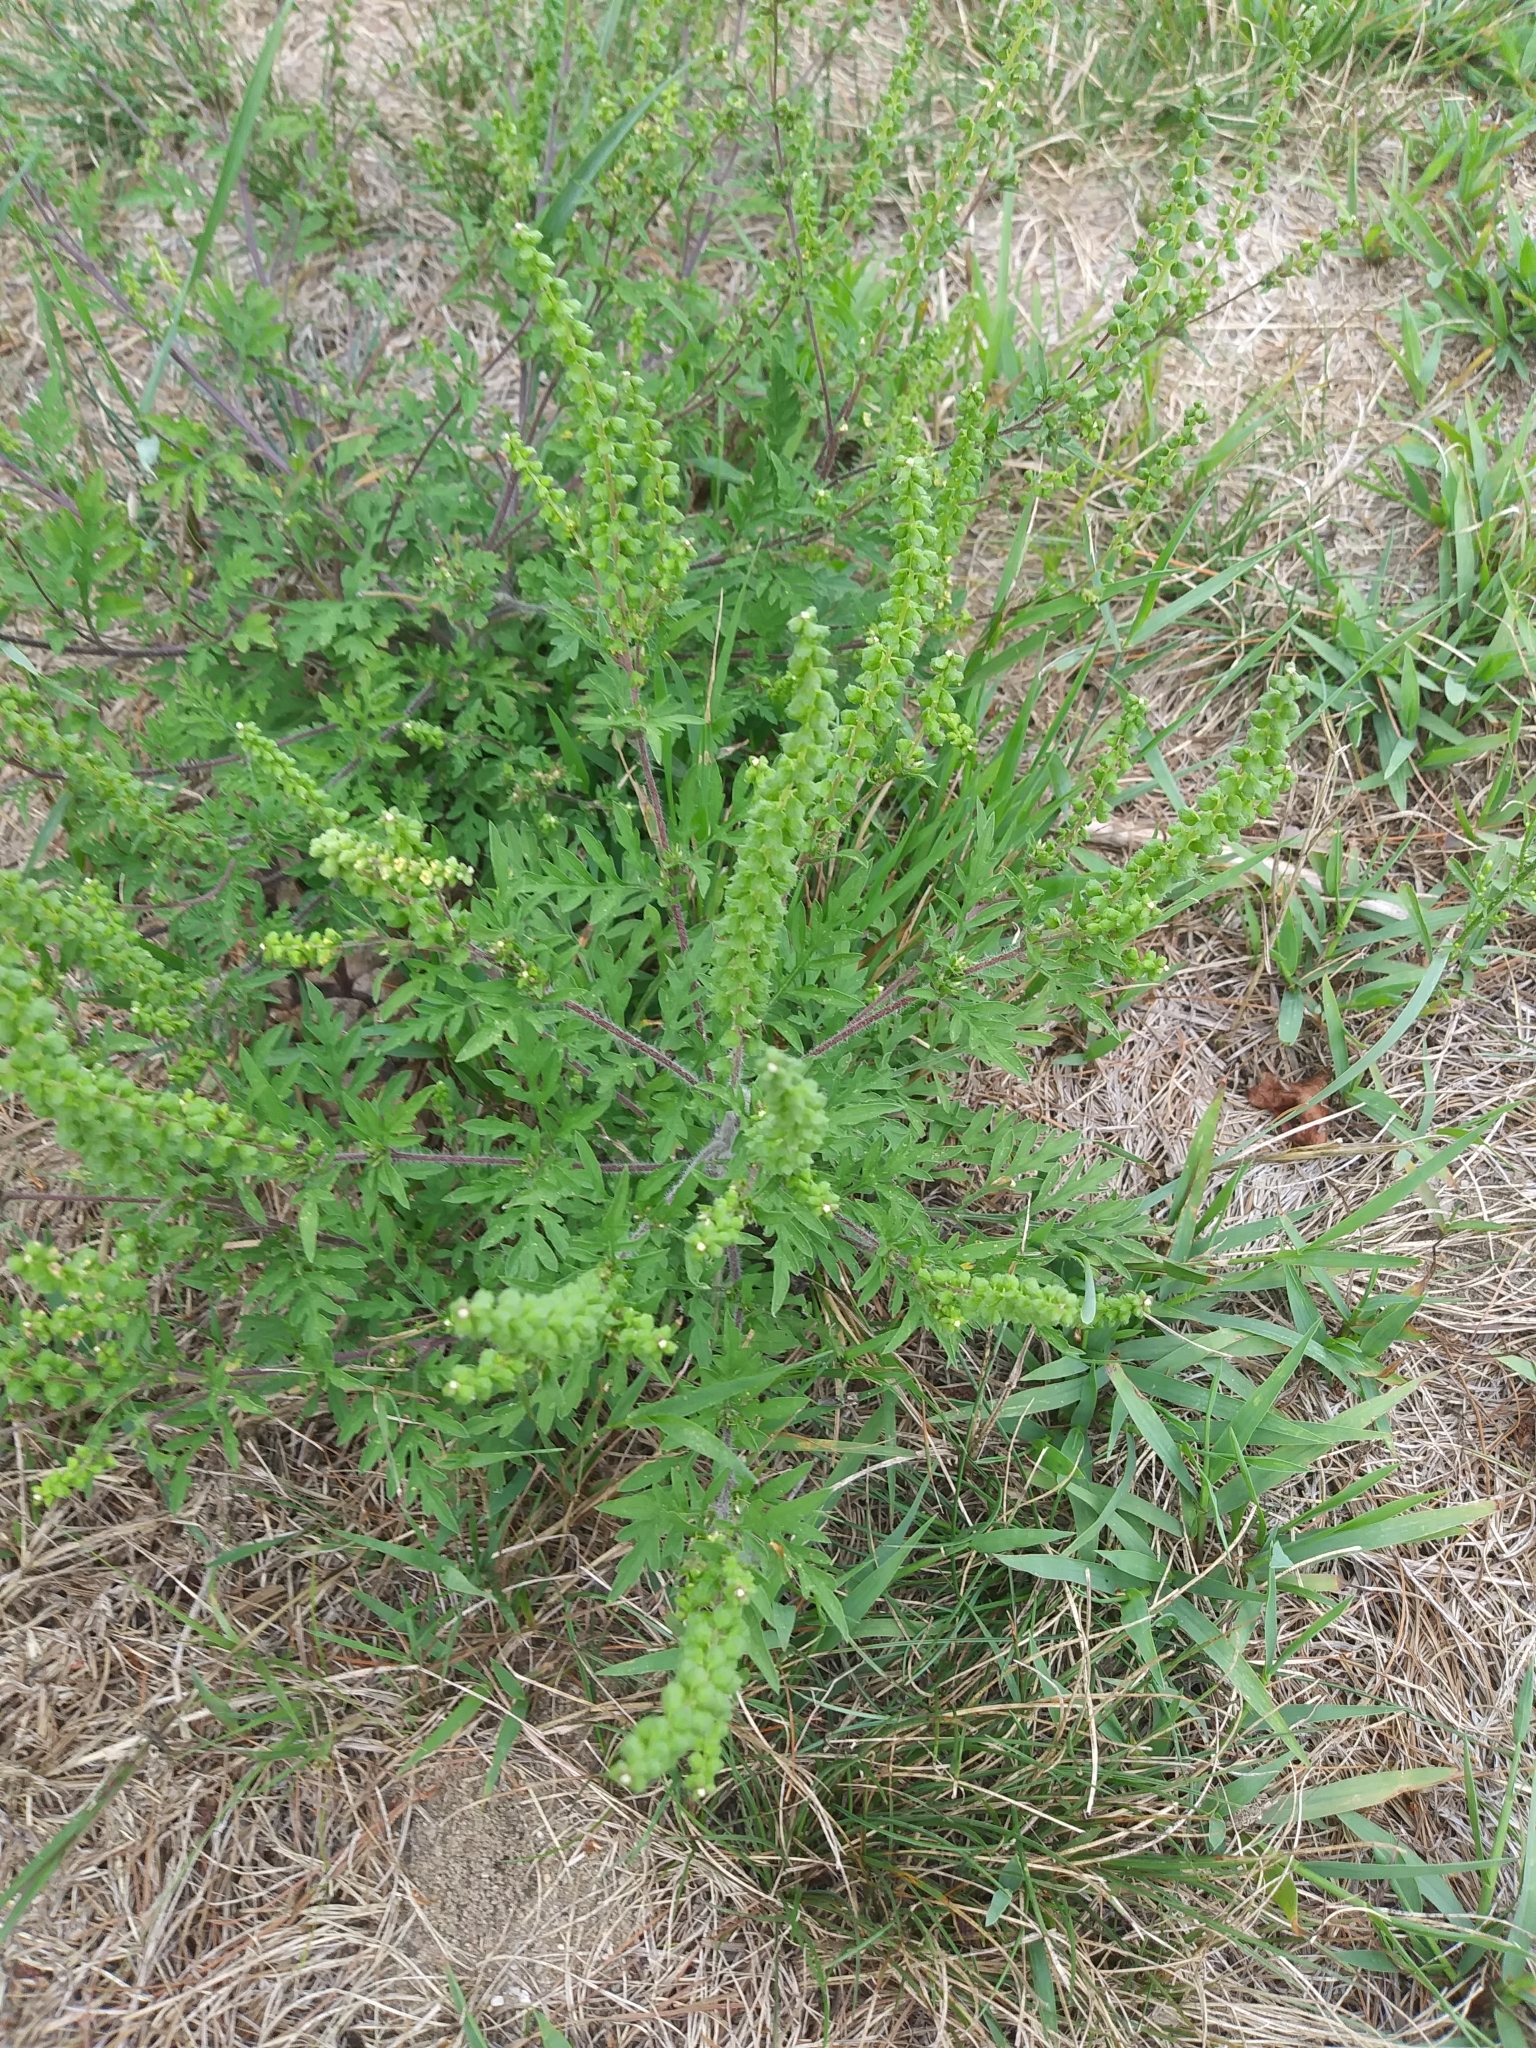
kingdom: Plantae
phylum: Tracheophyta
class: Magnoliopsida
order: Asterales
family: Asteraceae
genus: Ambrosia
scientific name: Ambrosia artemisiifolia
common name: Annual ragweed
